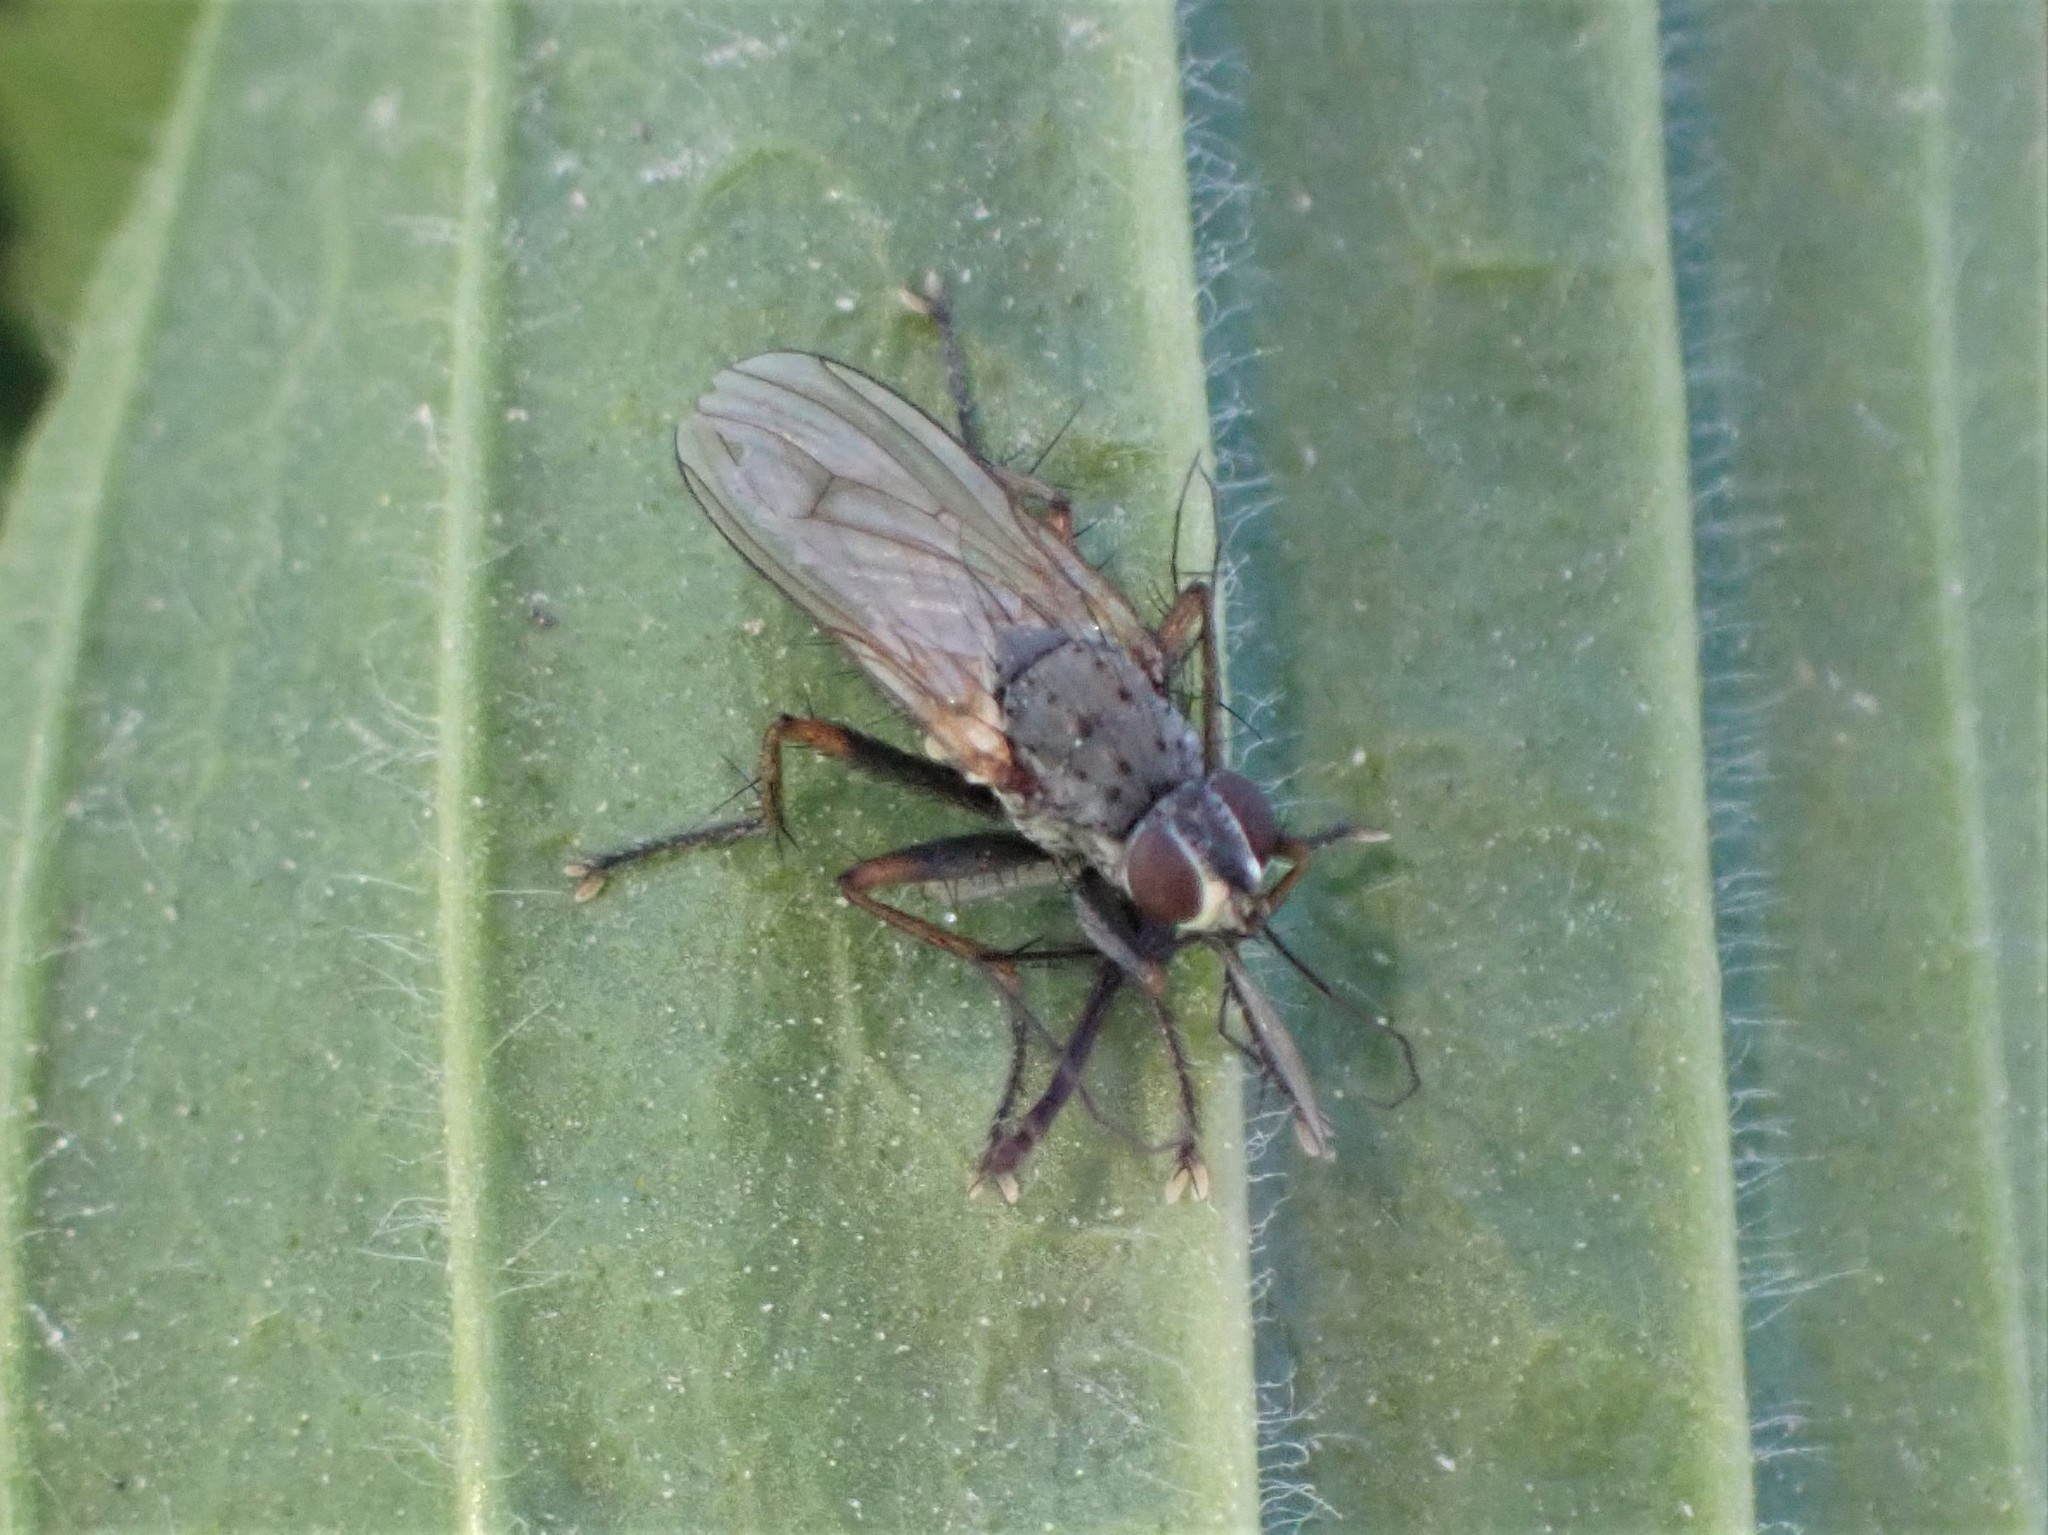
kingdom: Animalia
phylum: Arthropoda
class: Insecta
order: Diptera
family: Muscidae
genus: Coenosia
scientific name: Coenosia tigrina
